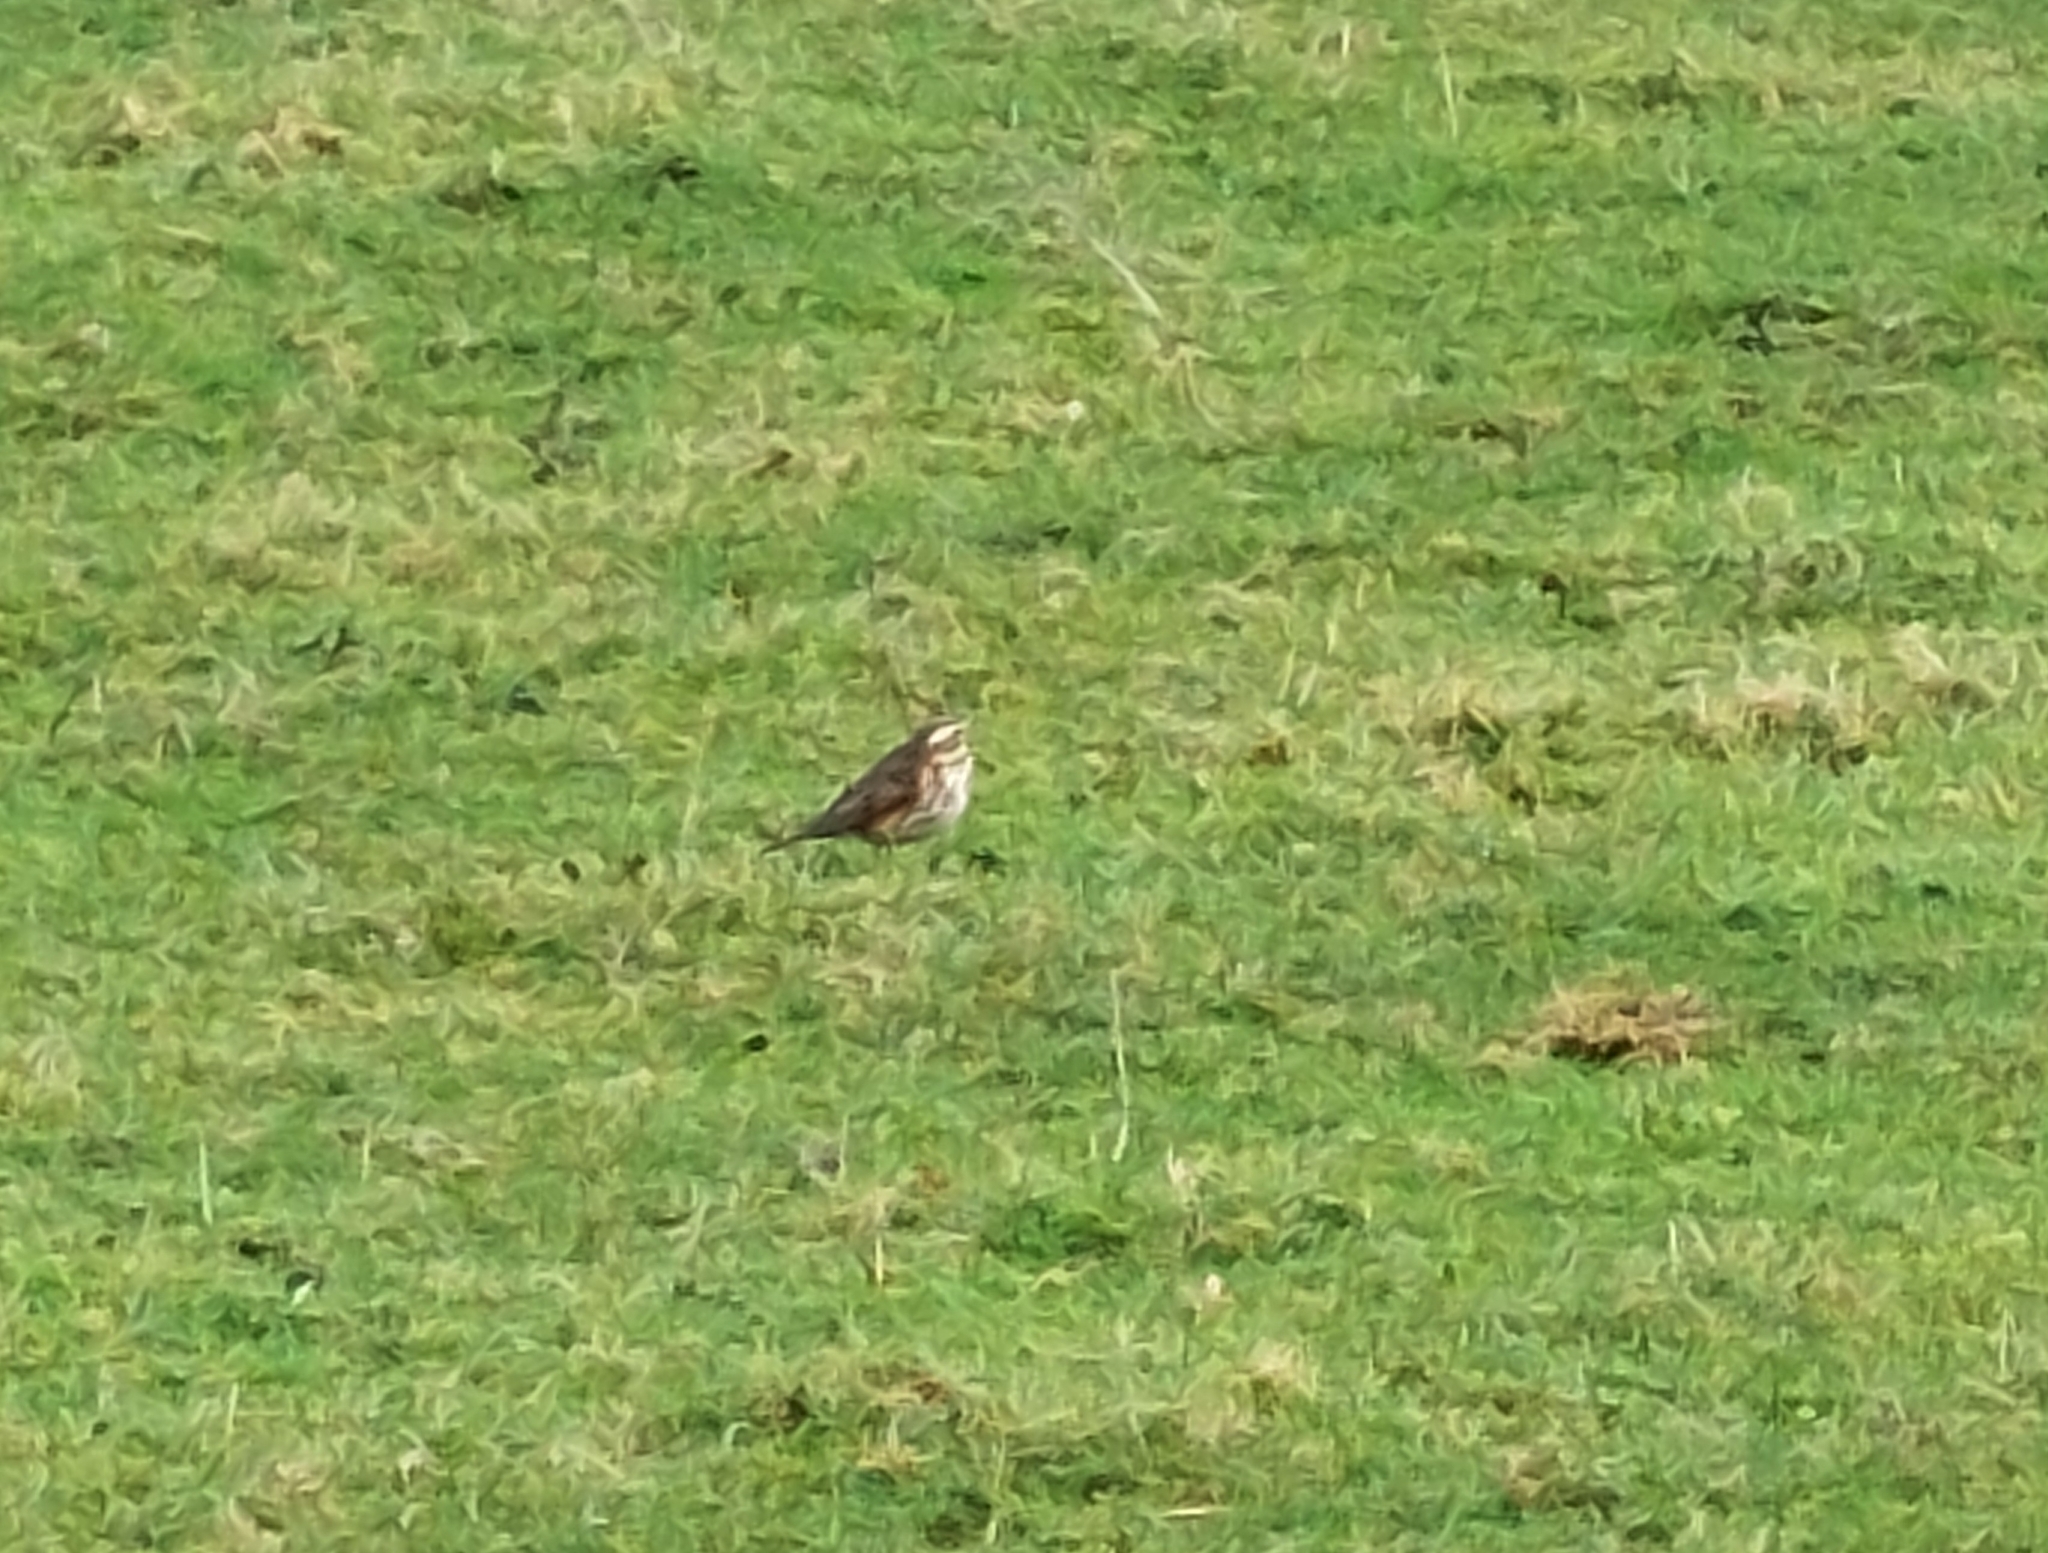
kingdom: Animalia
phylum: Chordata
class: Aves
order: Passeriformes
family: Turdidae
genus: Turdus
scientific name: Turdus iliacus
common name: Redwing
